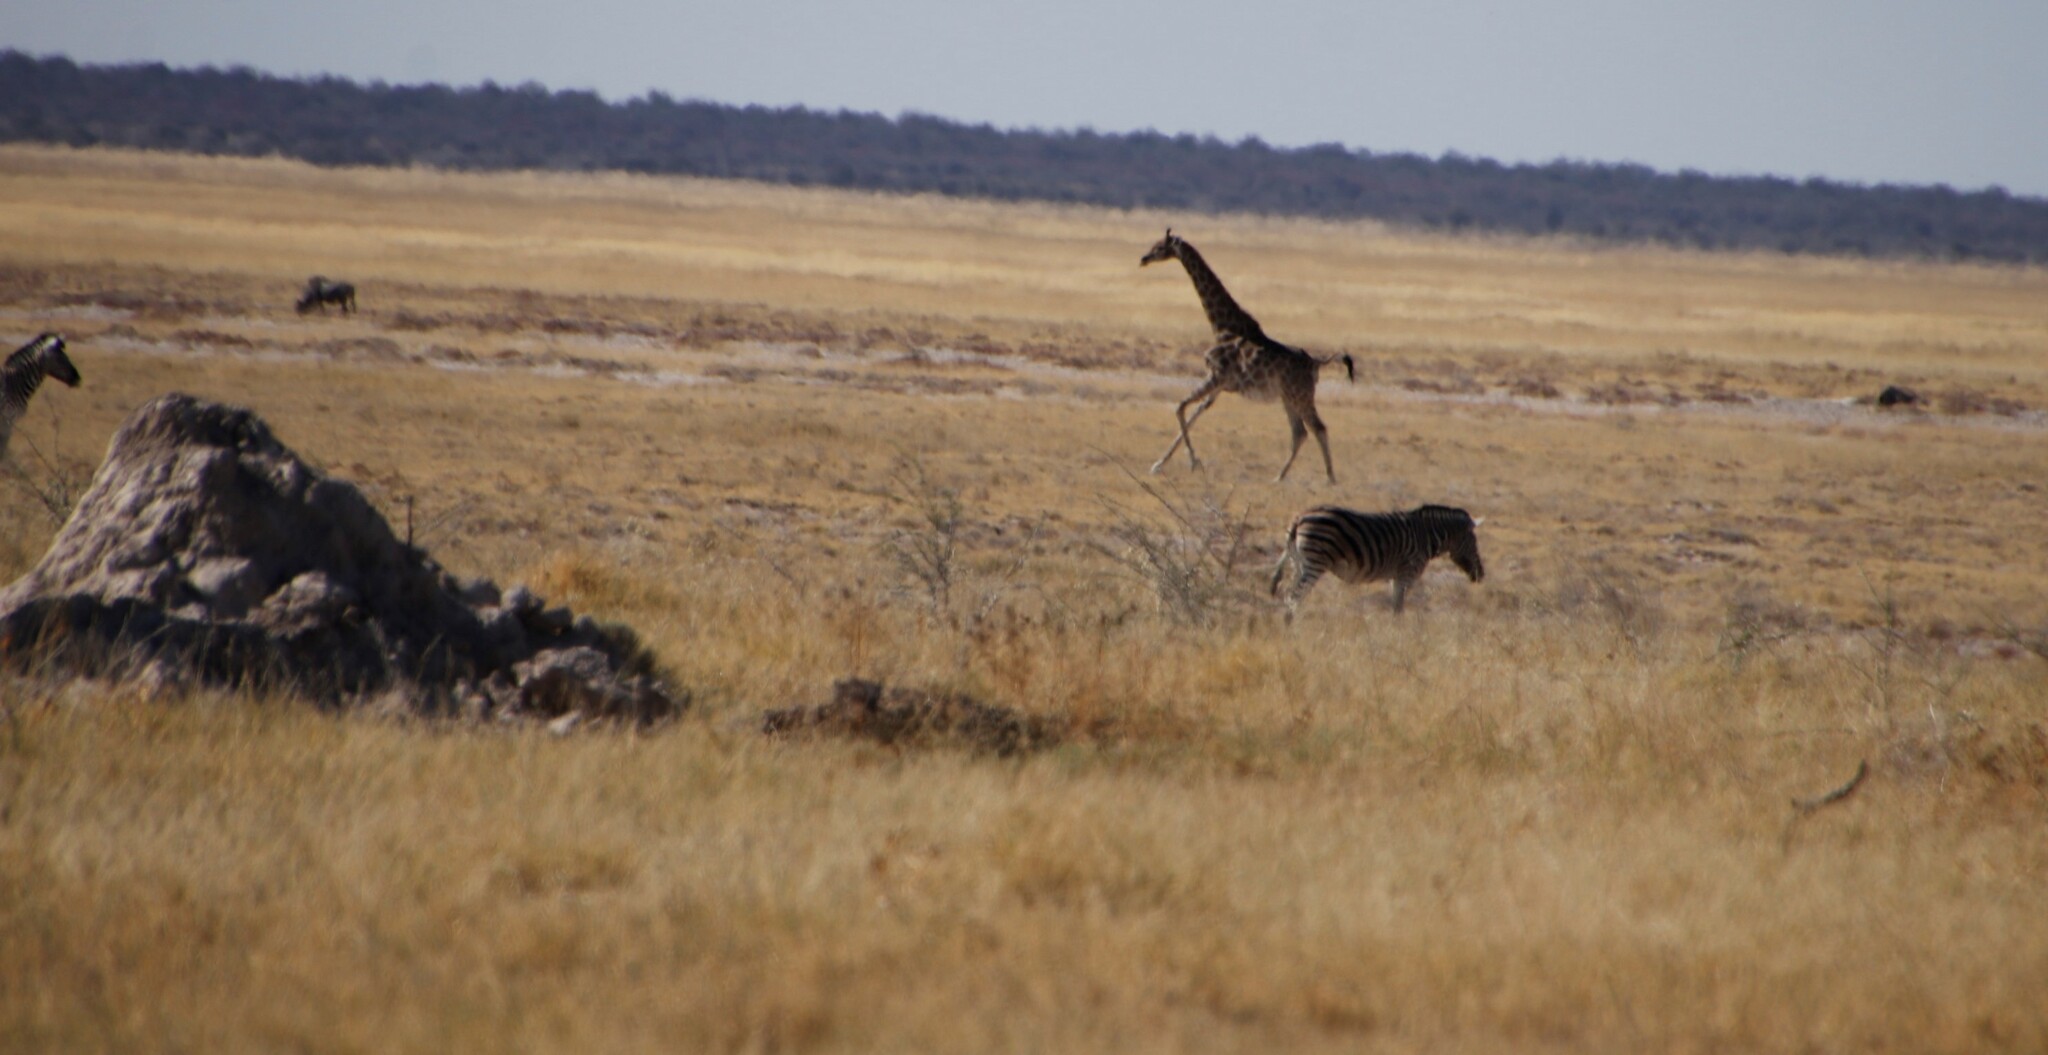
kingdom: Animalia
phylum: Chordata
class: Mammalia
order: Artiodactyla
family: Giraffidae
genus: Giraffa
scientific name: Giraffa giraffa
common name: Southern giraffe
